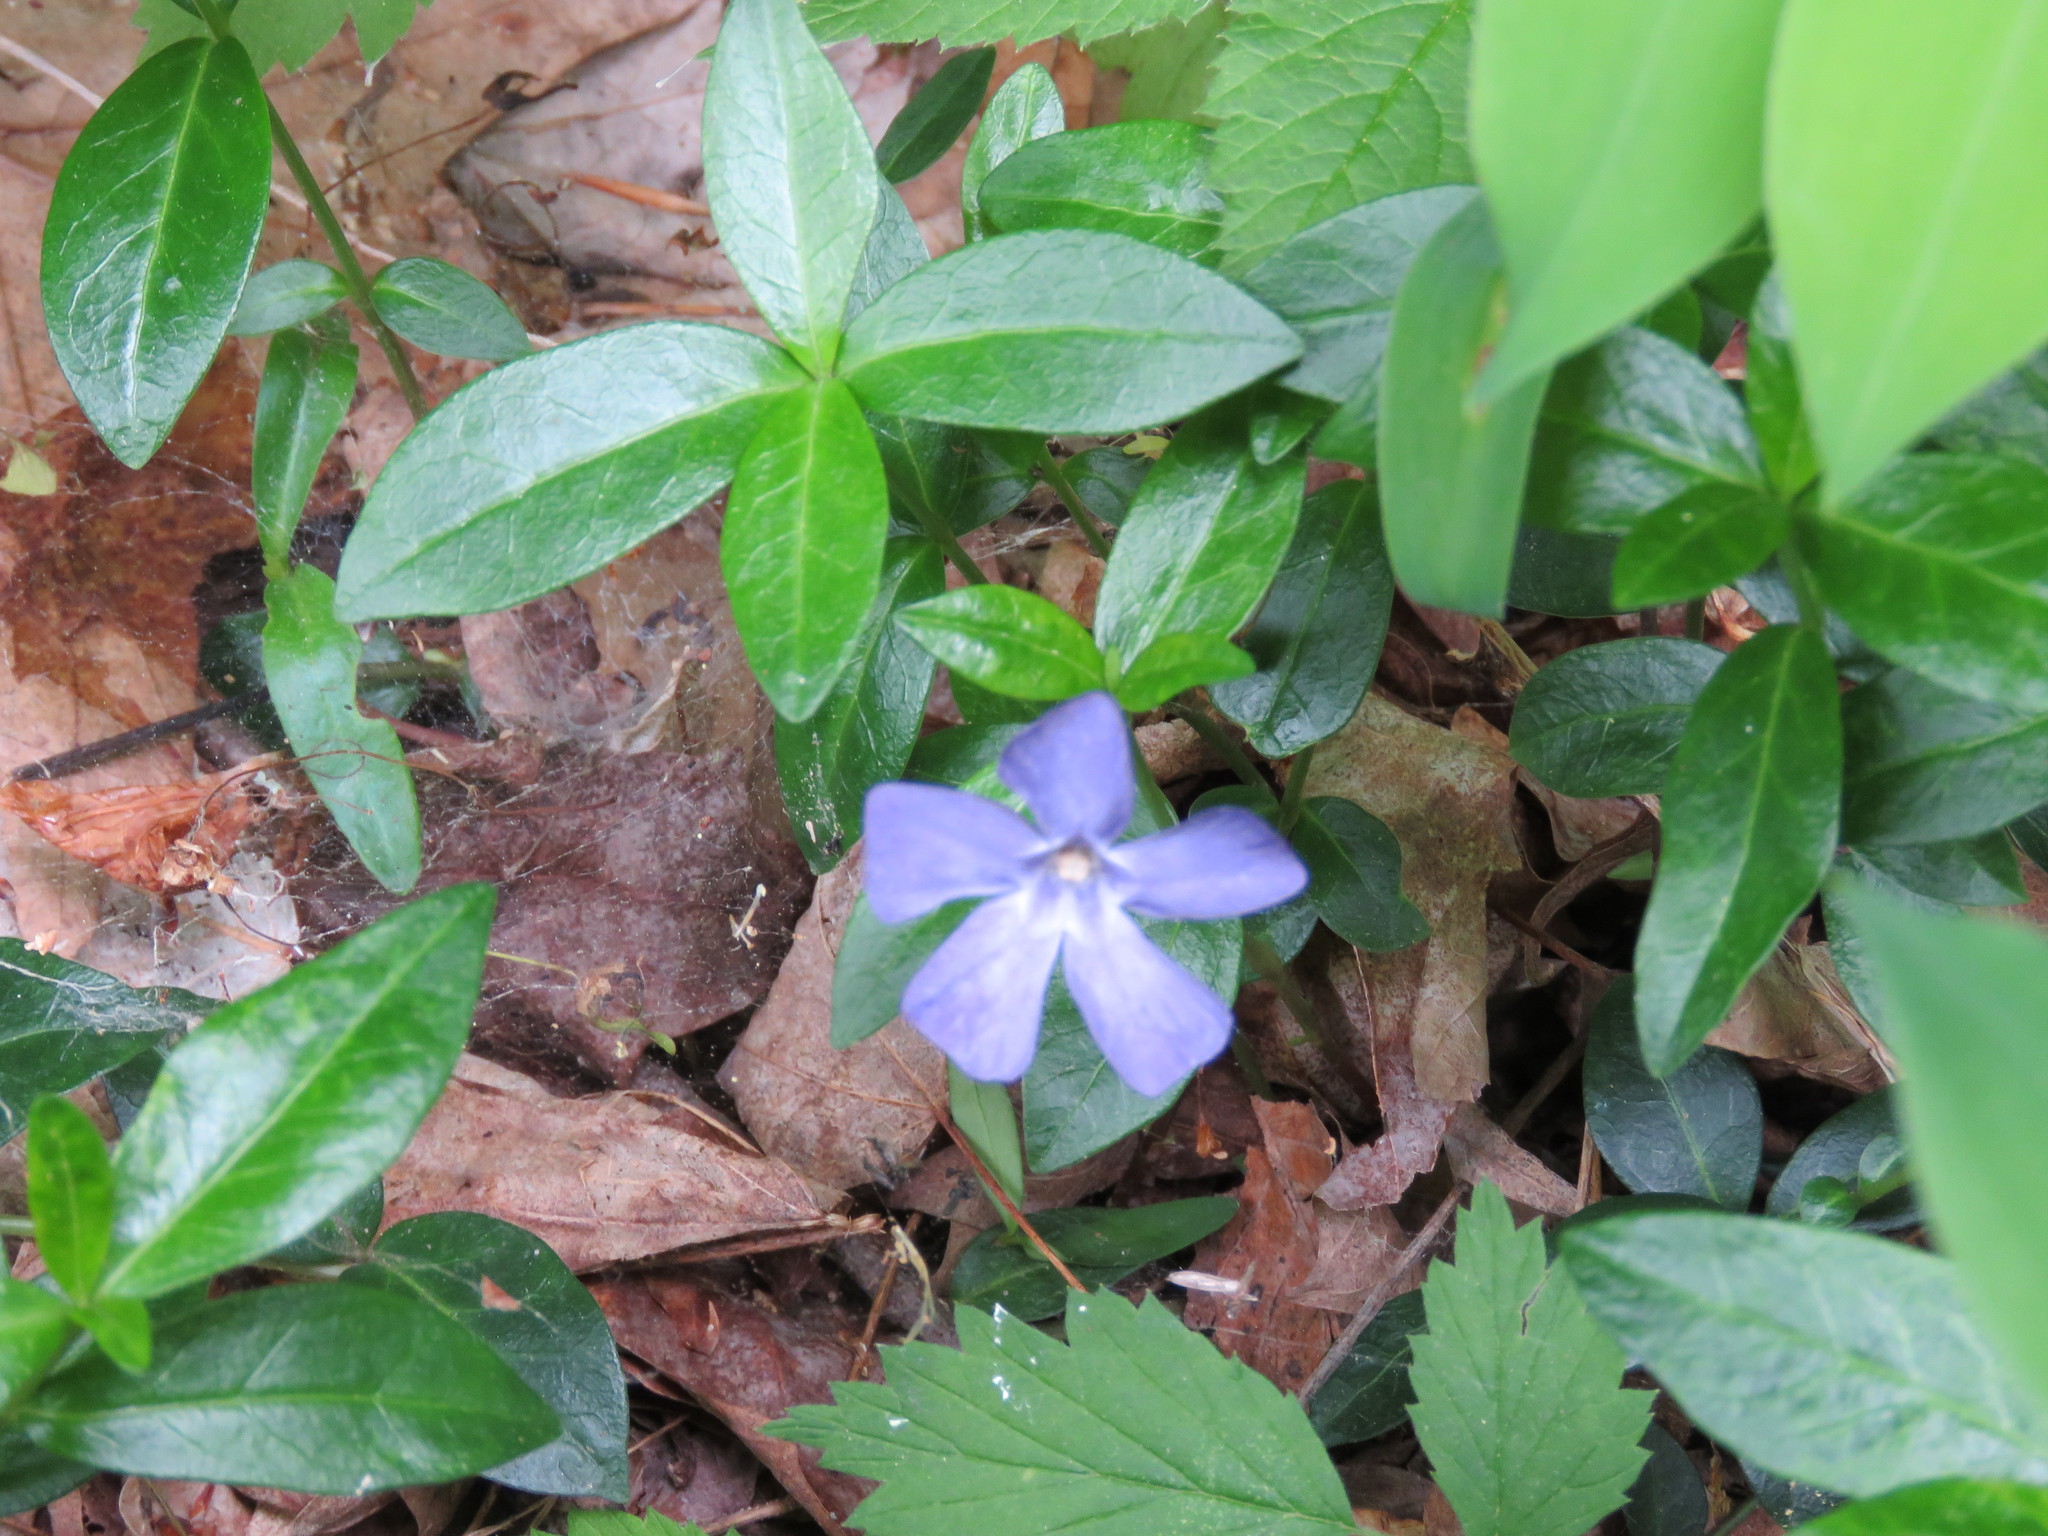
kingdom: Plantae
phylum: Tracheophyta
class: Magnoliopsida
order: Gentianales
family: Apocynaceae
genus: Vinca
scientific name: Vinca minor
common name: Lesser periwinkle
